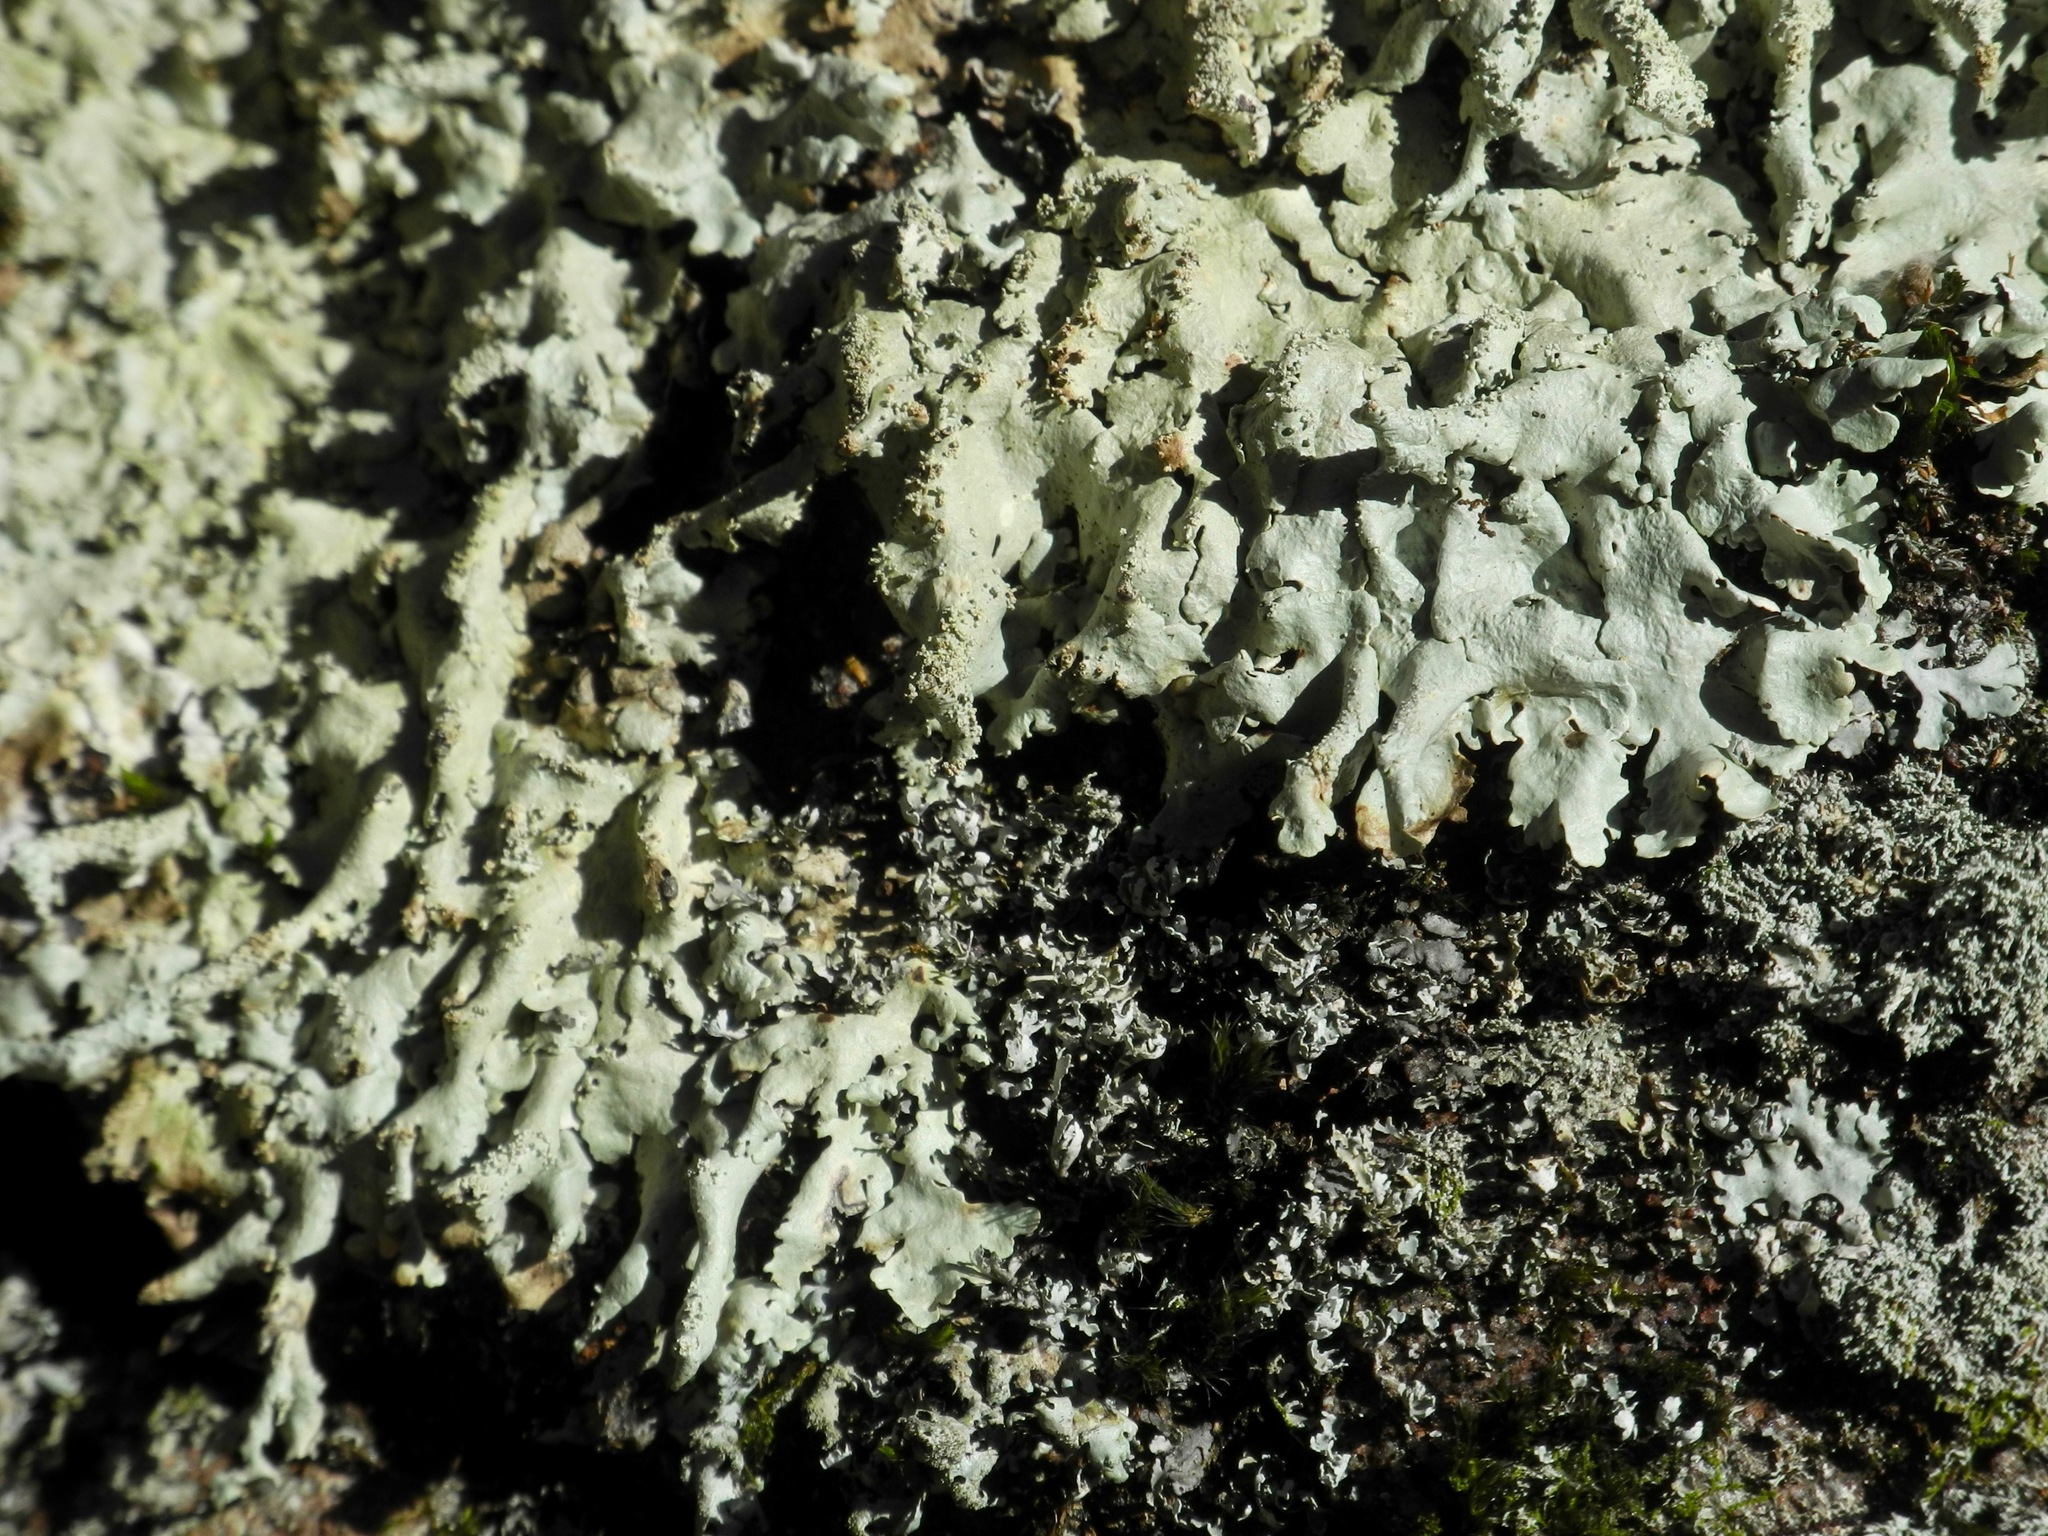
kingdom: Fungi
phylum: Ascomycota
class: Lecanoromycetes
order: Lecanorales
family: Parmeliaceae
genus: Flavoparmelia
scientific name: Flavoparmelia baltimorensis
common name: Rock greenshield
